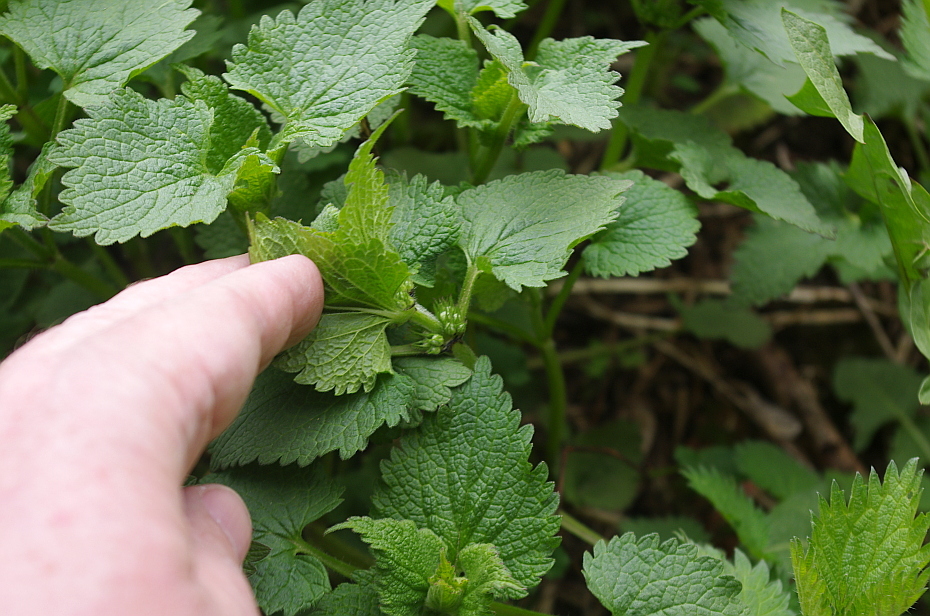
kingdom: Plantae
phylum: Tracheophyta
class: Magnoliopsida
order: Lamiales
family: Lamiaceae
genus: Lamium
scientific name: Lamium album
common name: White dead-nettle
